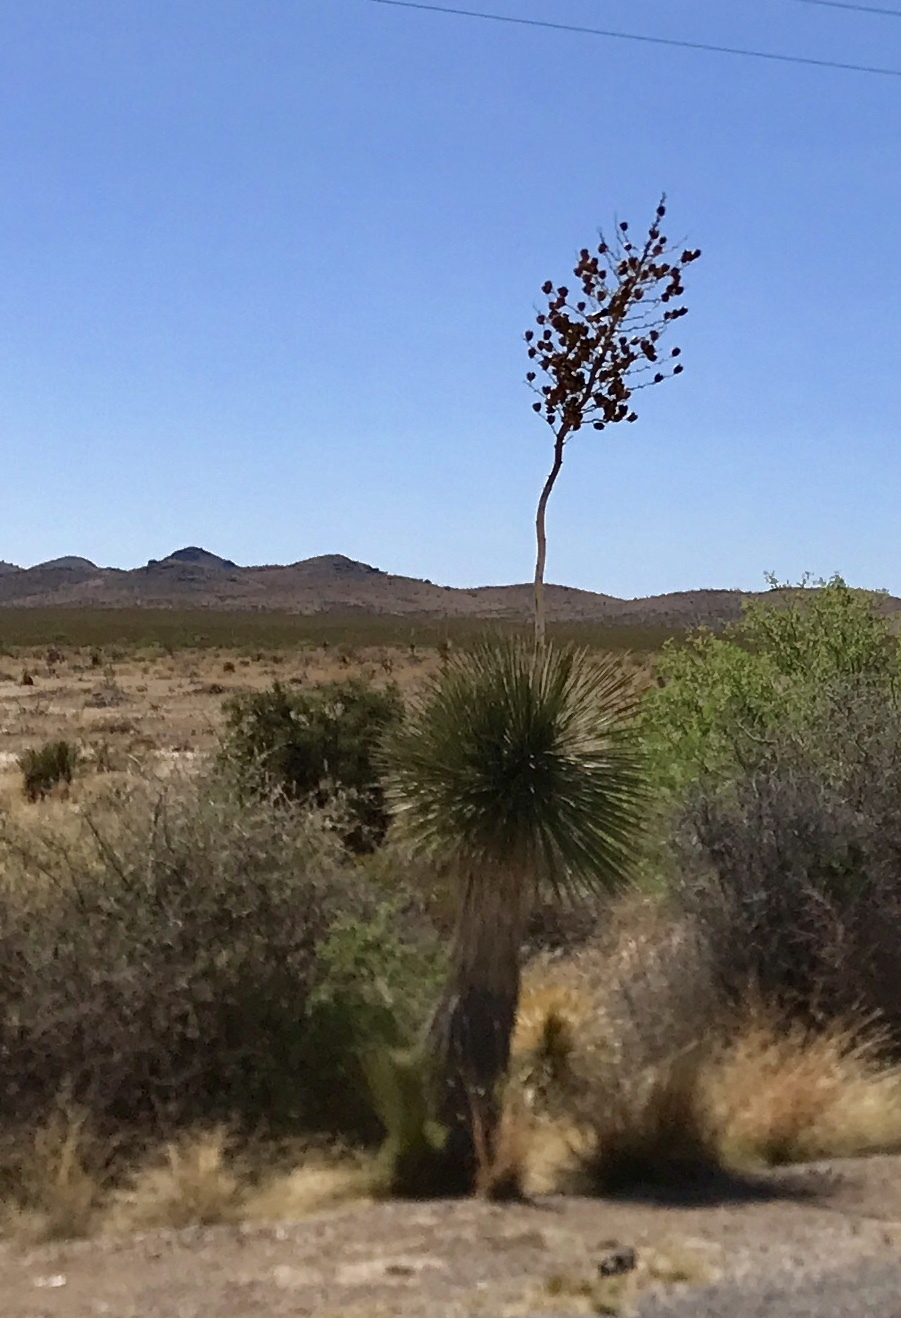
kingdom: Plantae
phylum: Tracheophyta
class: Liliopsida
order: Asparagales
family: Asparagaceae
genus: Yucca
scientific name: Yucca elata
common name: Palmella
